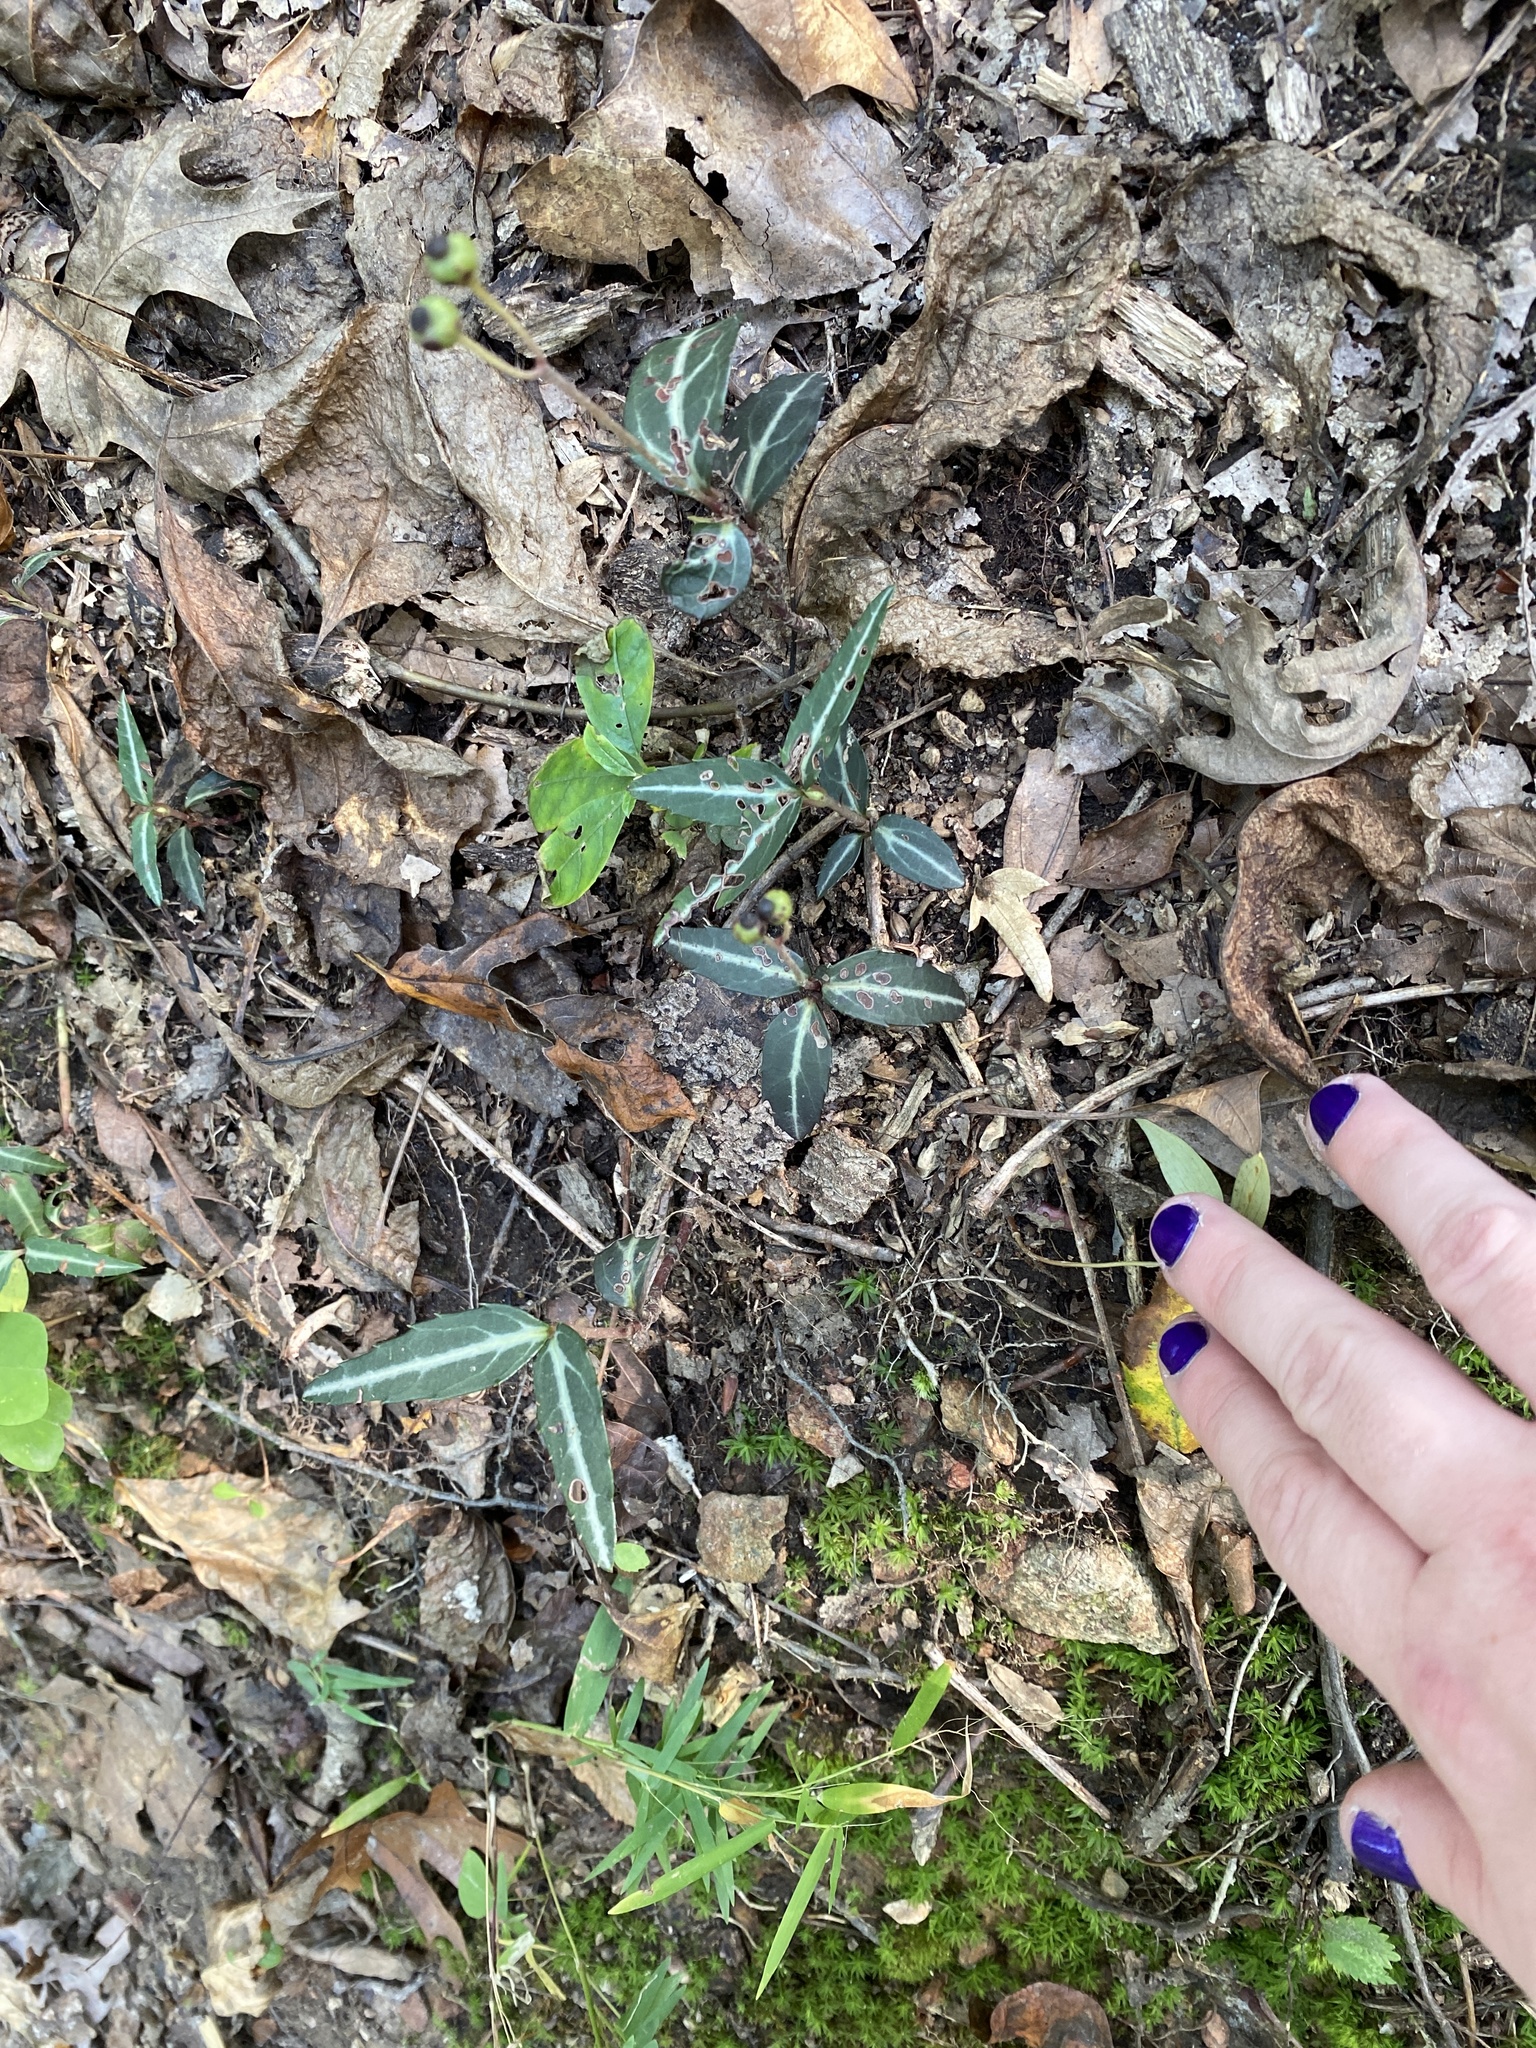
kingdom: Plantae
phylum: Tracheophyta
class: Magnoliopsida
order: Ericales
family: Ericaceae
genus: Chimaphila
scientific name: Chimaphila maculata
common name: Spotted pipsissewa
